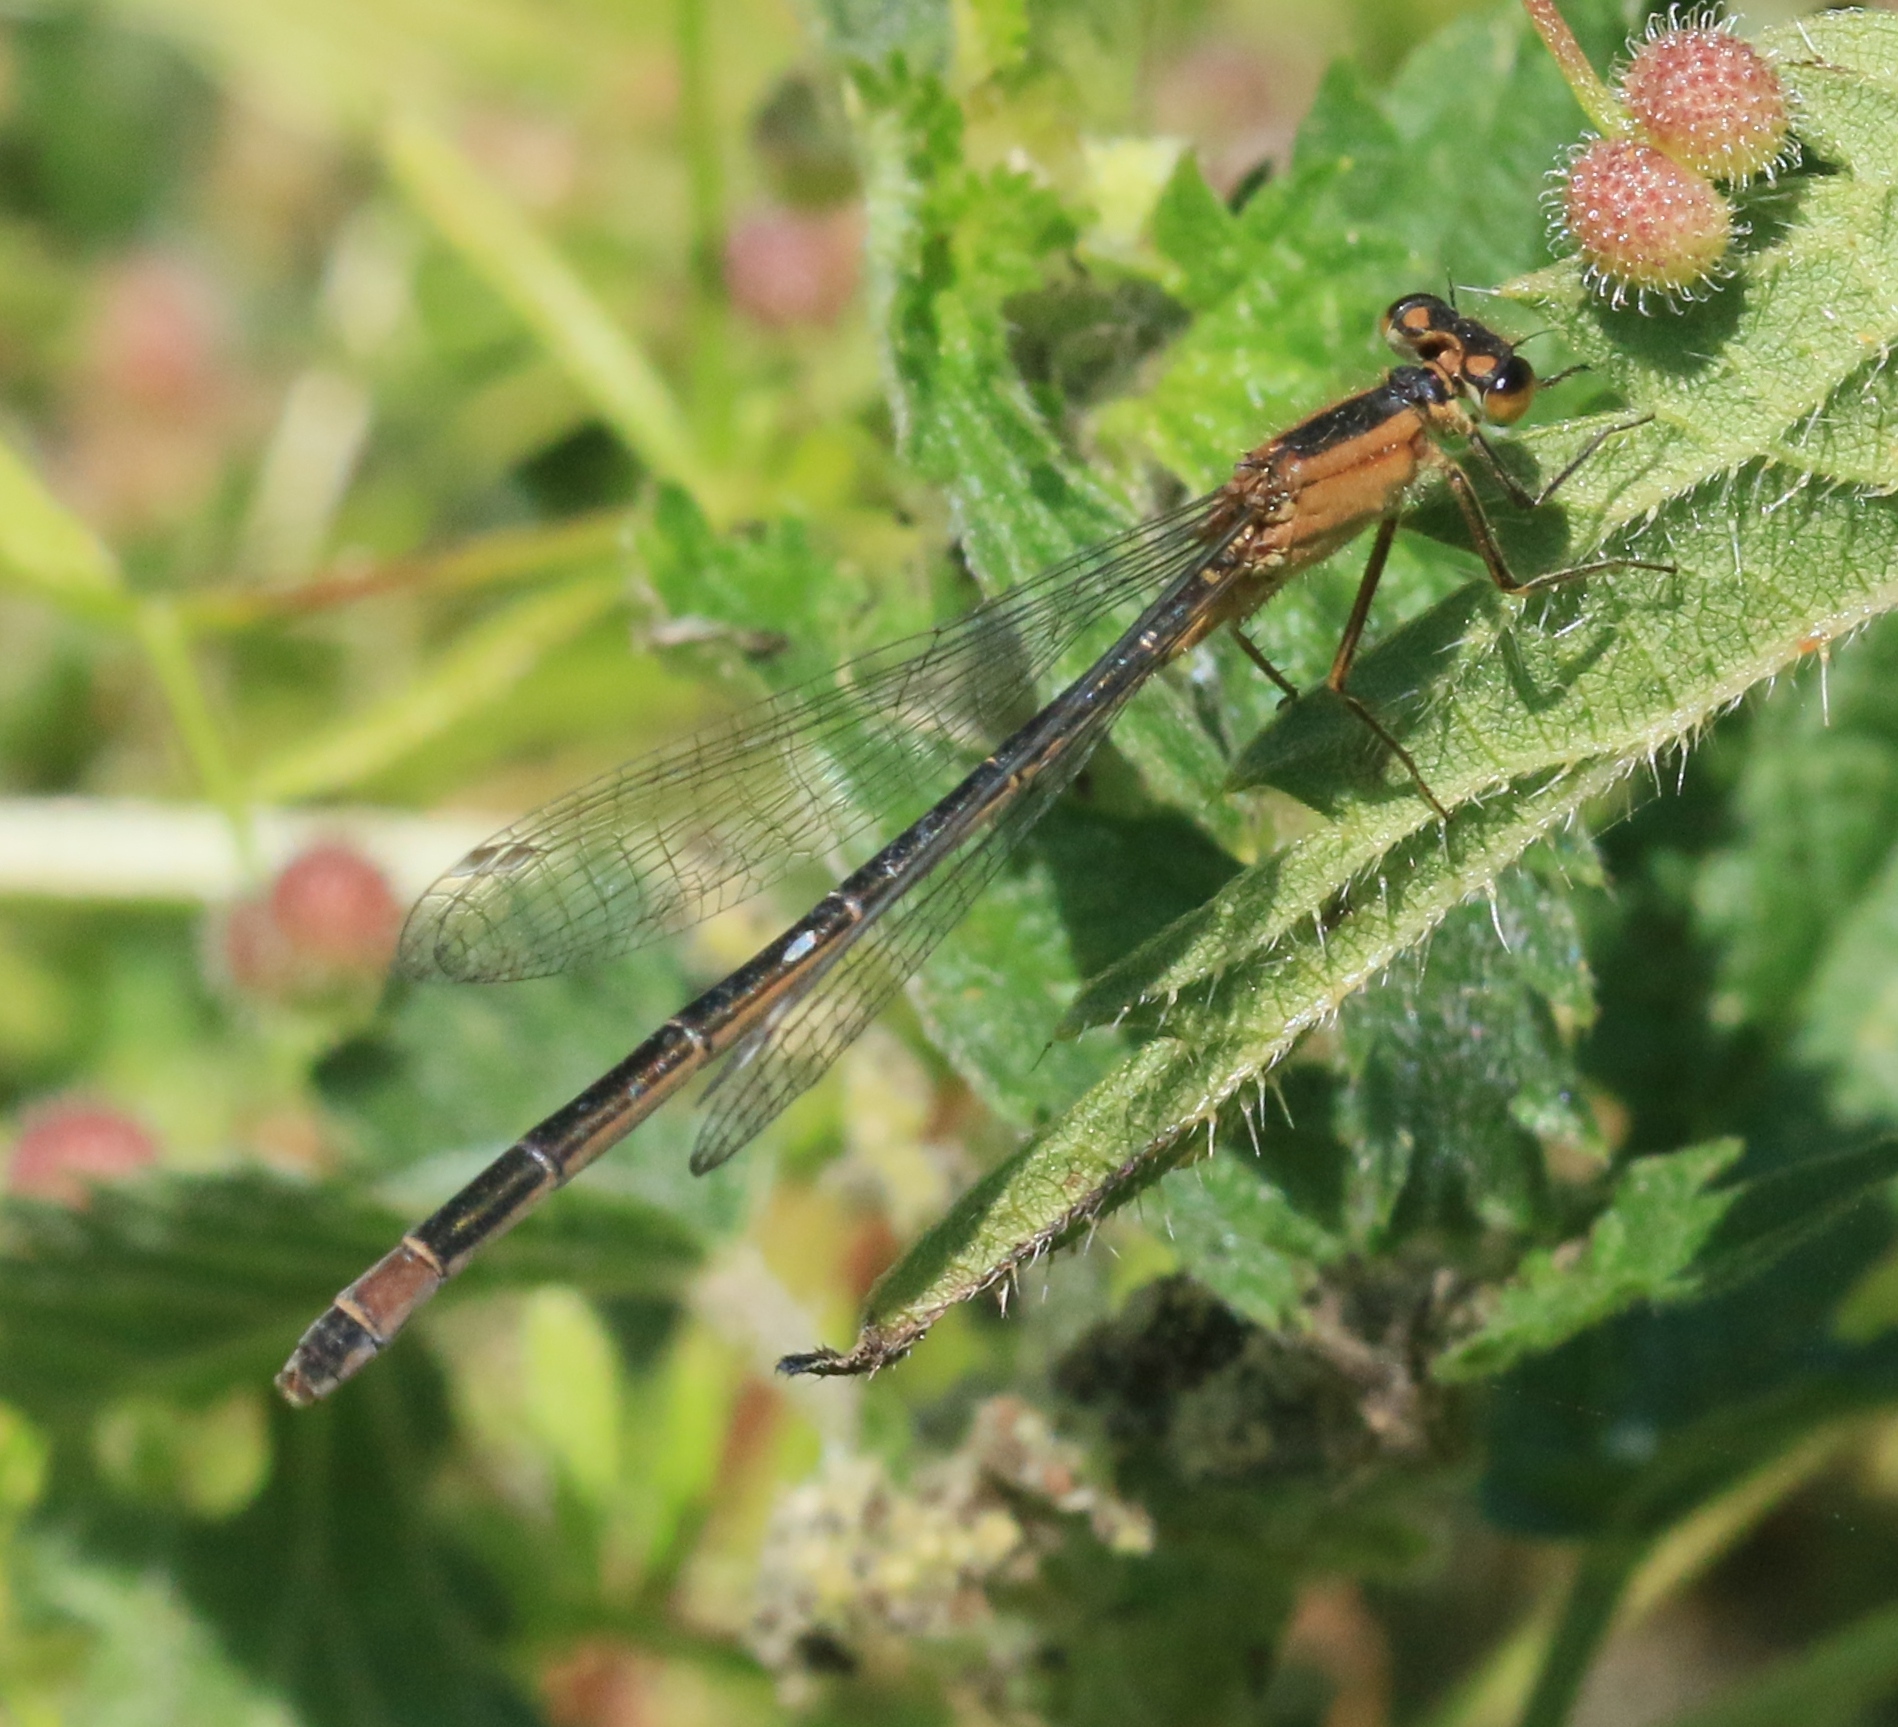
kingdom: Animalia
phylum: Arthropoda
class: Insecta
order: Odonata
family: Coenagrionidae
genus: Ischnura
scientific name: Ischnura elegans
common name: Blue-tailed damselfly
